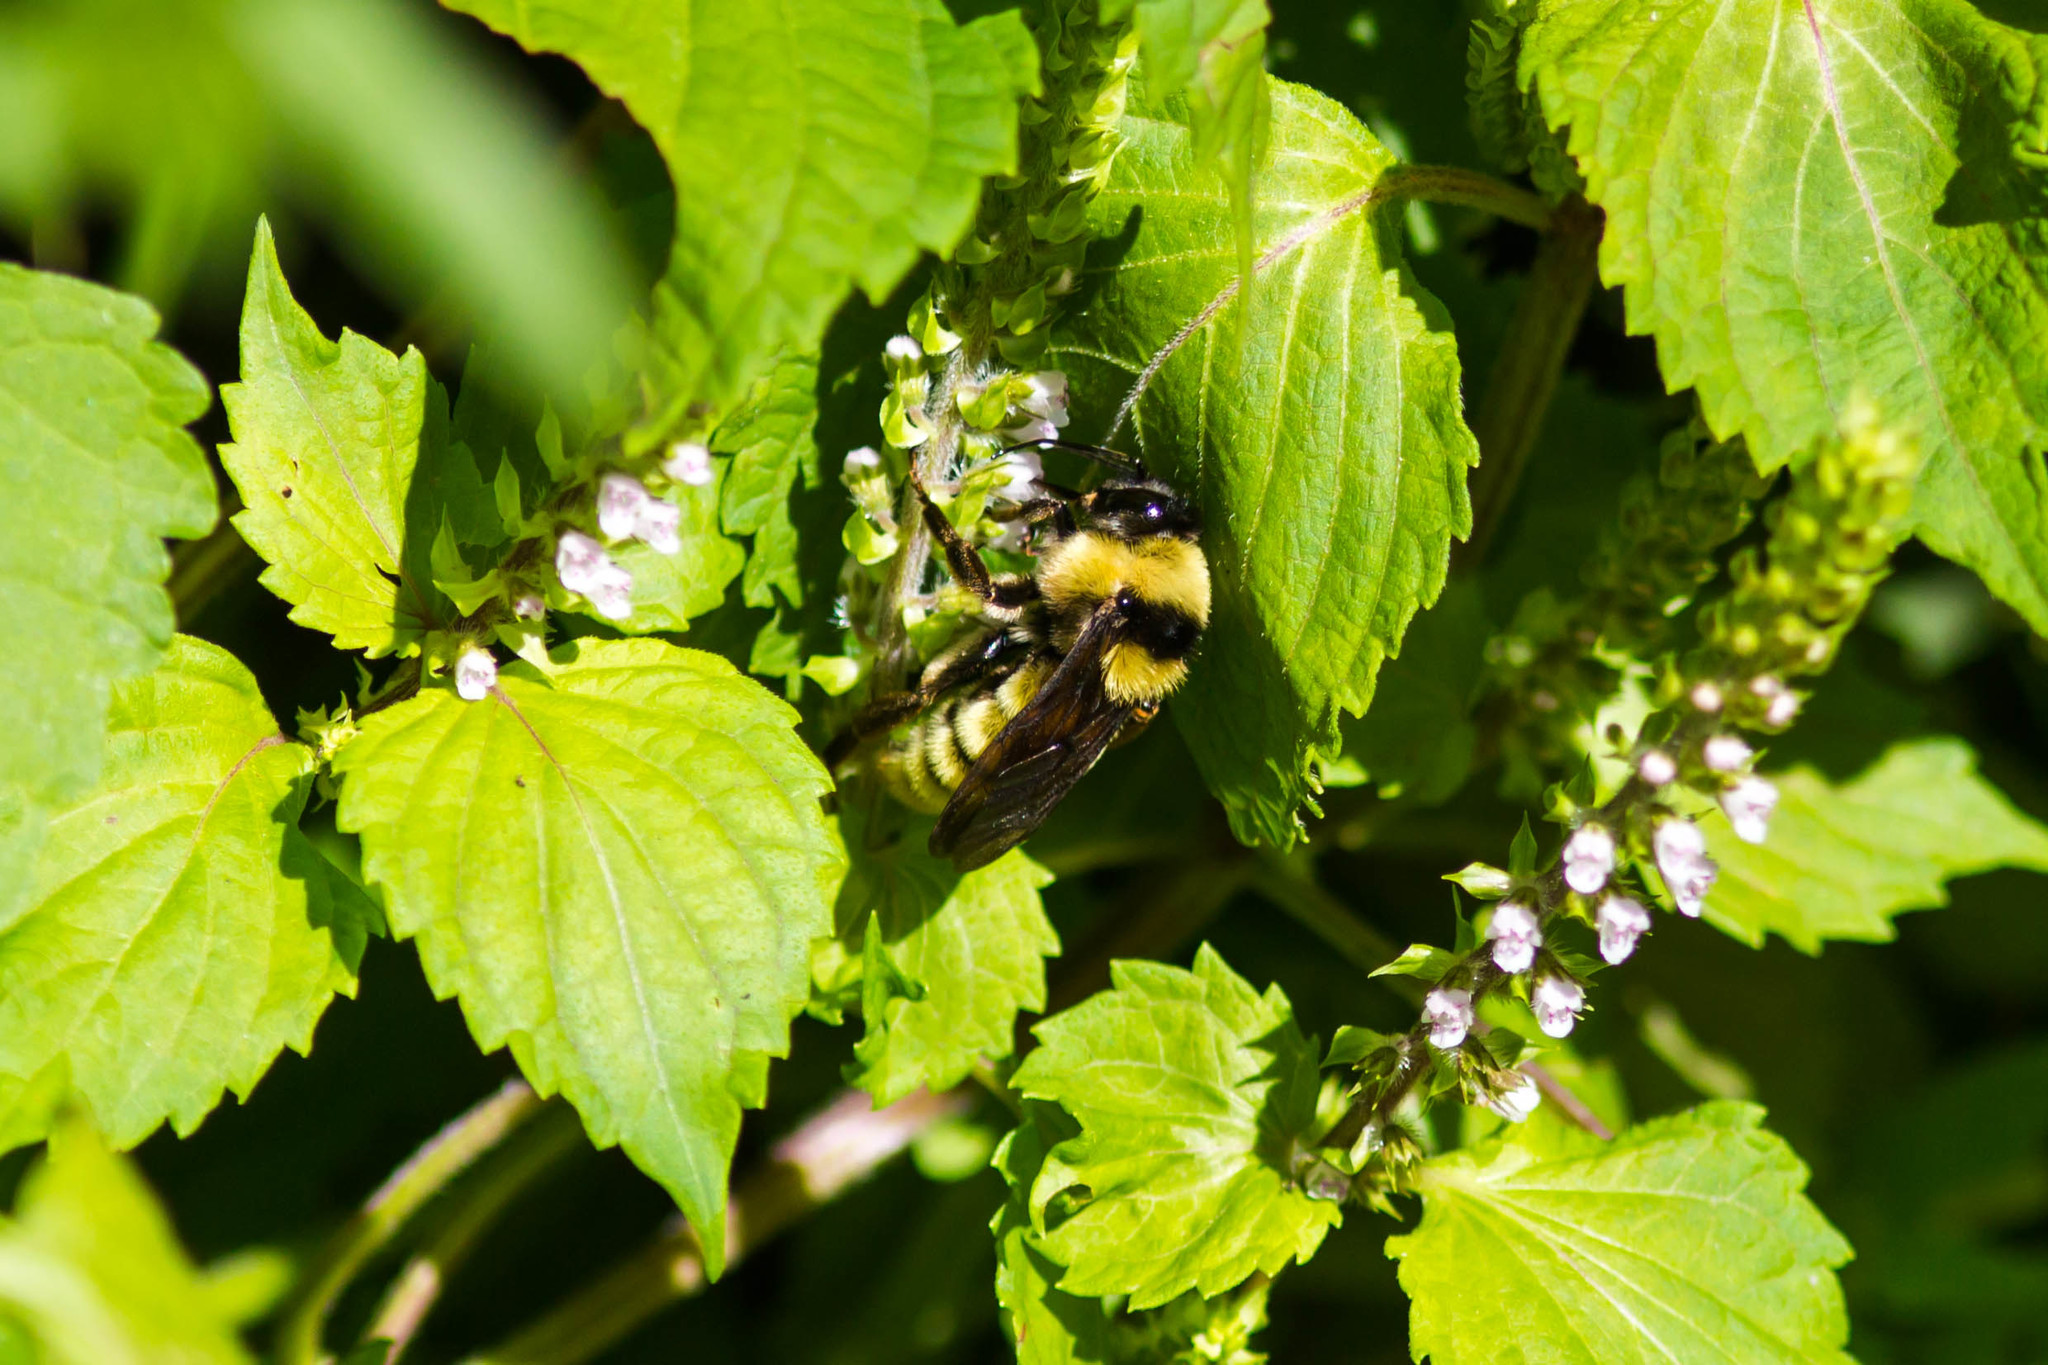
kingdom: Animalia
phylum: Arthropoda
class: Insecta
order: Hymenoptera
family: Apidae
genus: Bombus
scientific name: Bombus pensylvanicus
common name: Bumble bee
